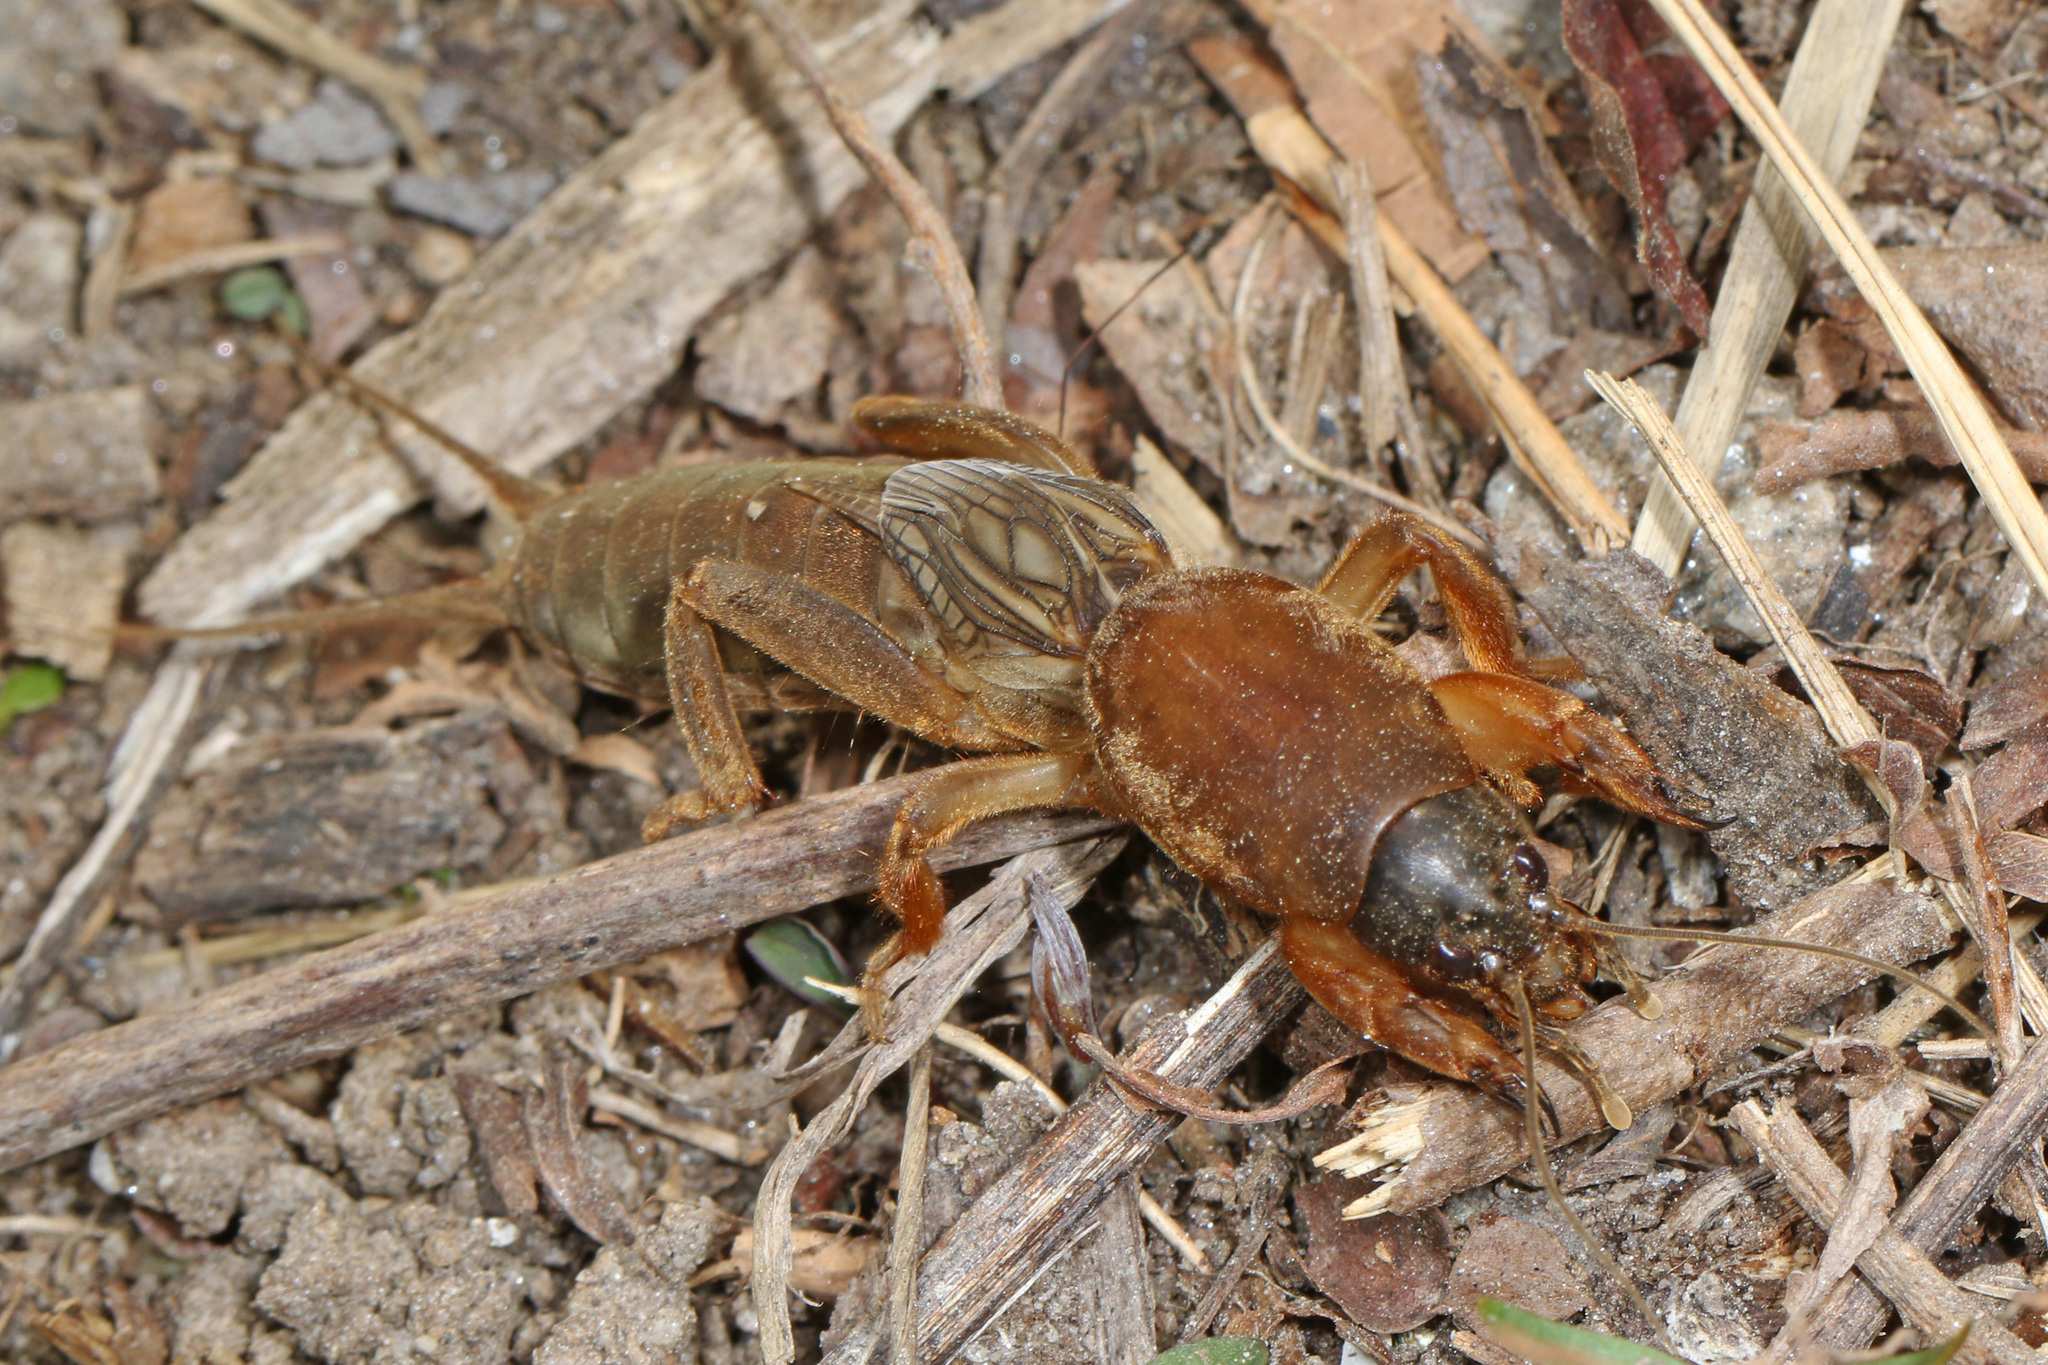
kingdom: Animalia
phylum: Arthropoda
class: Insecta
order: Orthoptera
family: Gryllotalpidae
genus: Neocurtilla
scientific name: Neocurtilla hexadactyla
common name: Northern mole cricket
